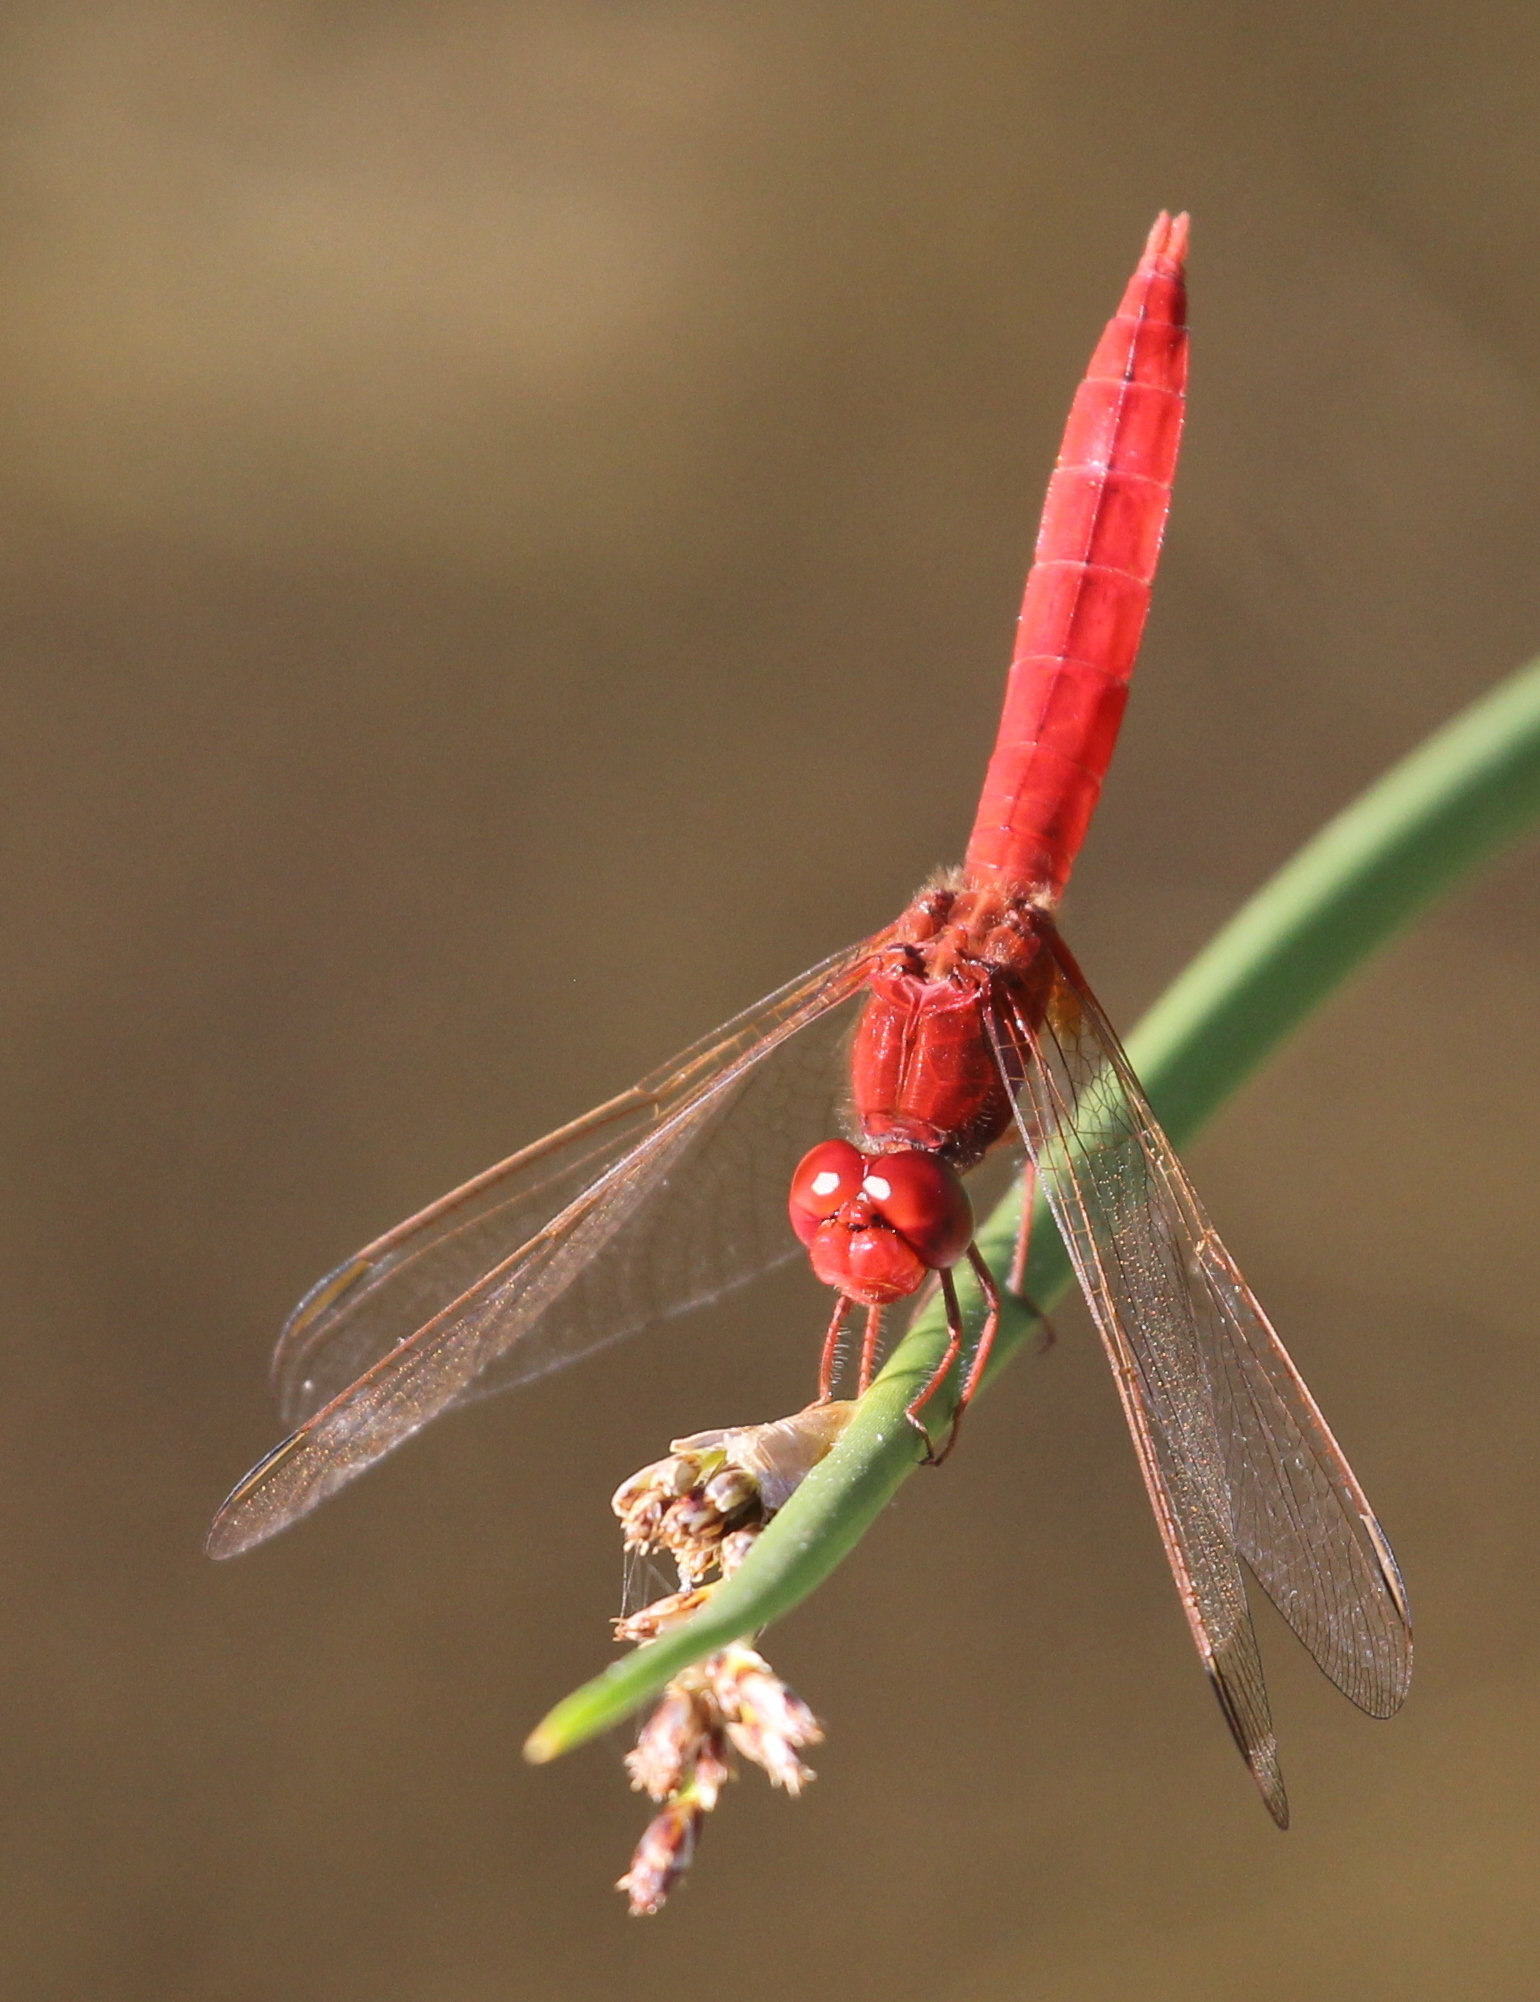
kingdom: Animalia
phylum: Arthropoda
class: Insecta
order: Odonata
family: Libellulidae
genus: Crocothemis
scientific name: Crocothemis erythraea
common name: Scarlet dragonfly
